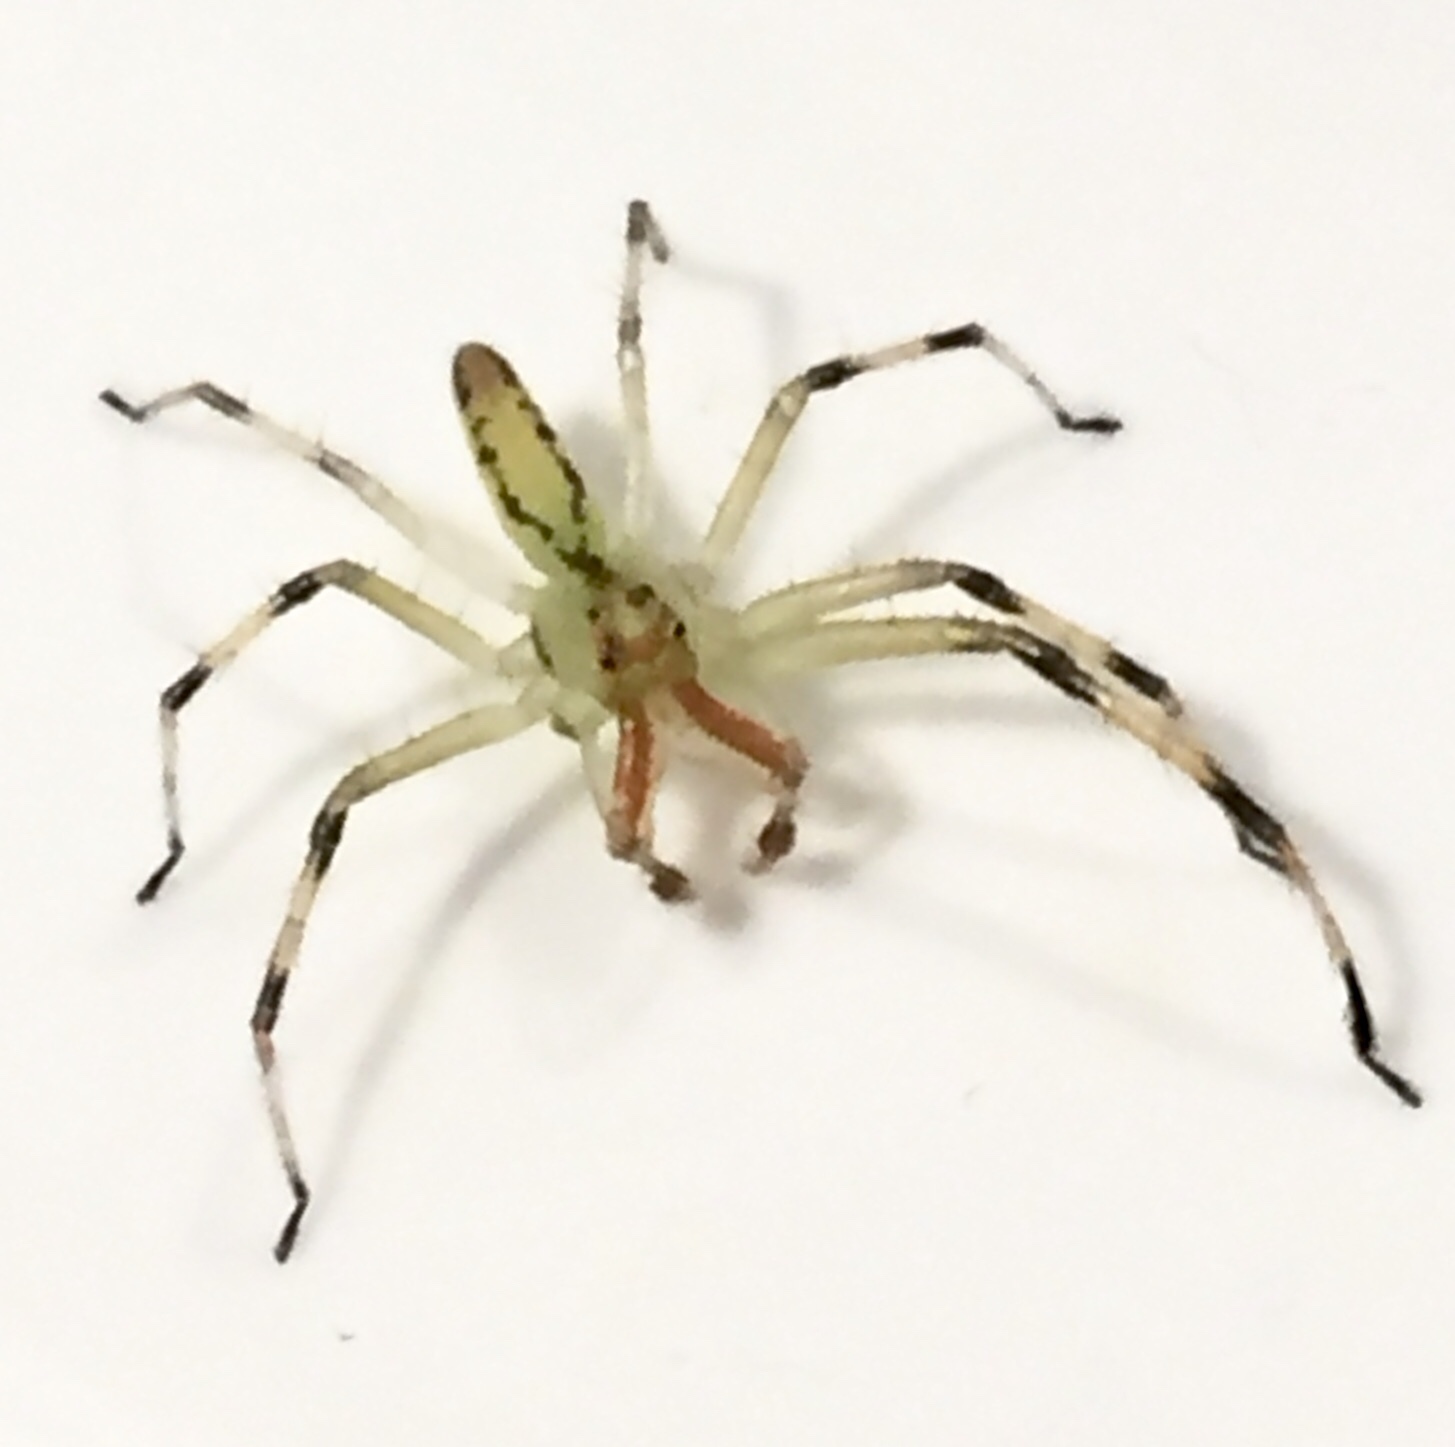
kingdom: Animalia
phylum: Arthropoda
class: Arachnida
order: Araneae
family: Salticidae
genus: Lyssomanes
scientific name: Lyssomanes viridis
